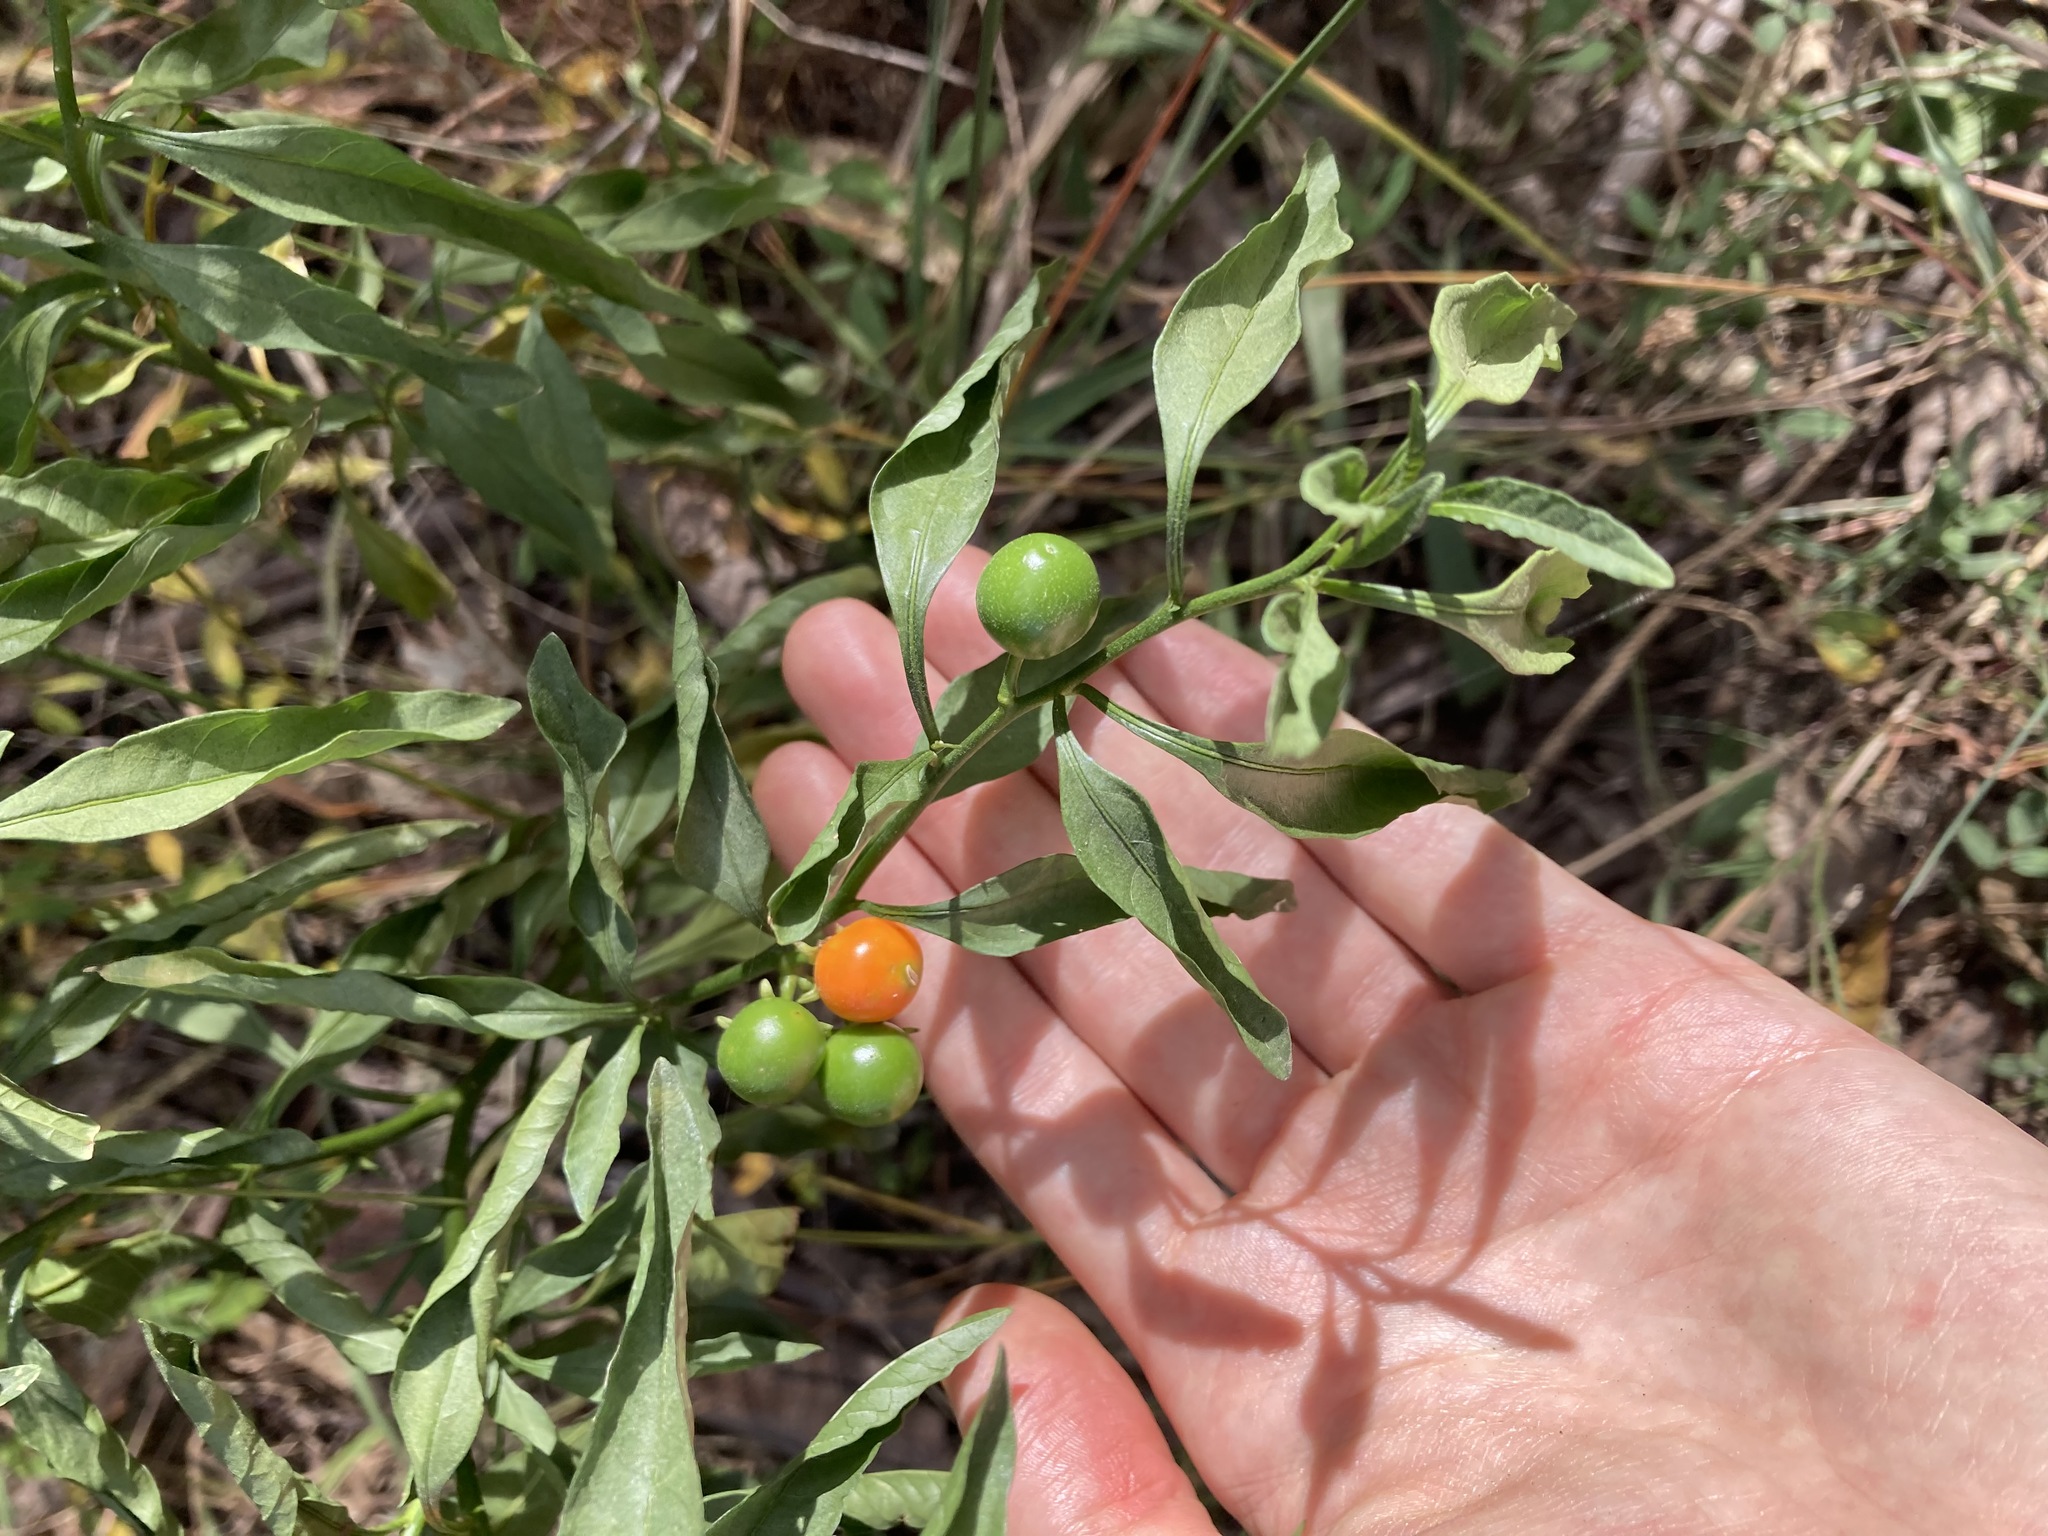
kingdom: Plantae
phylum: Tracheophyta
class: Magnoliopsida
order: Solanales
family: Solanaceae
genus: Solanum
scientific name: Solanum pseudocapsicum
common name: Jerusalem cherry
